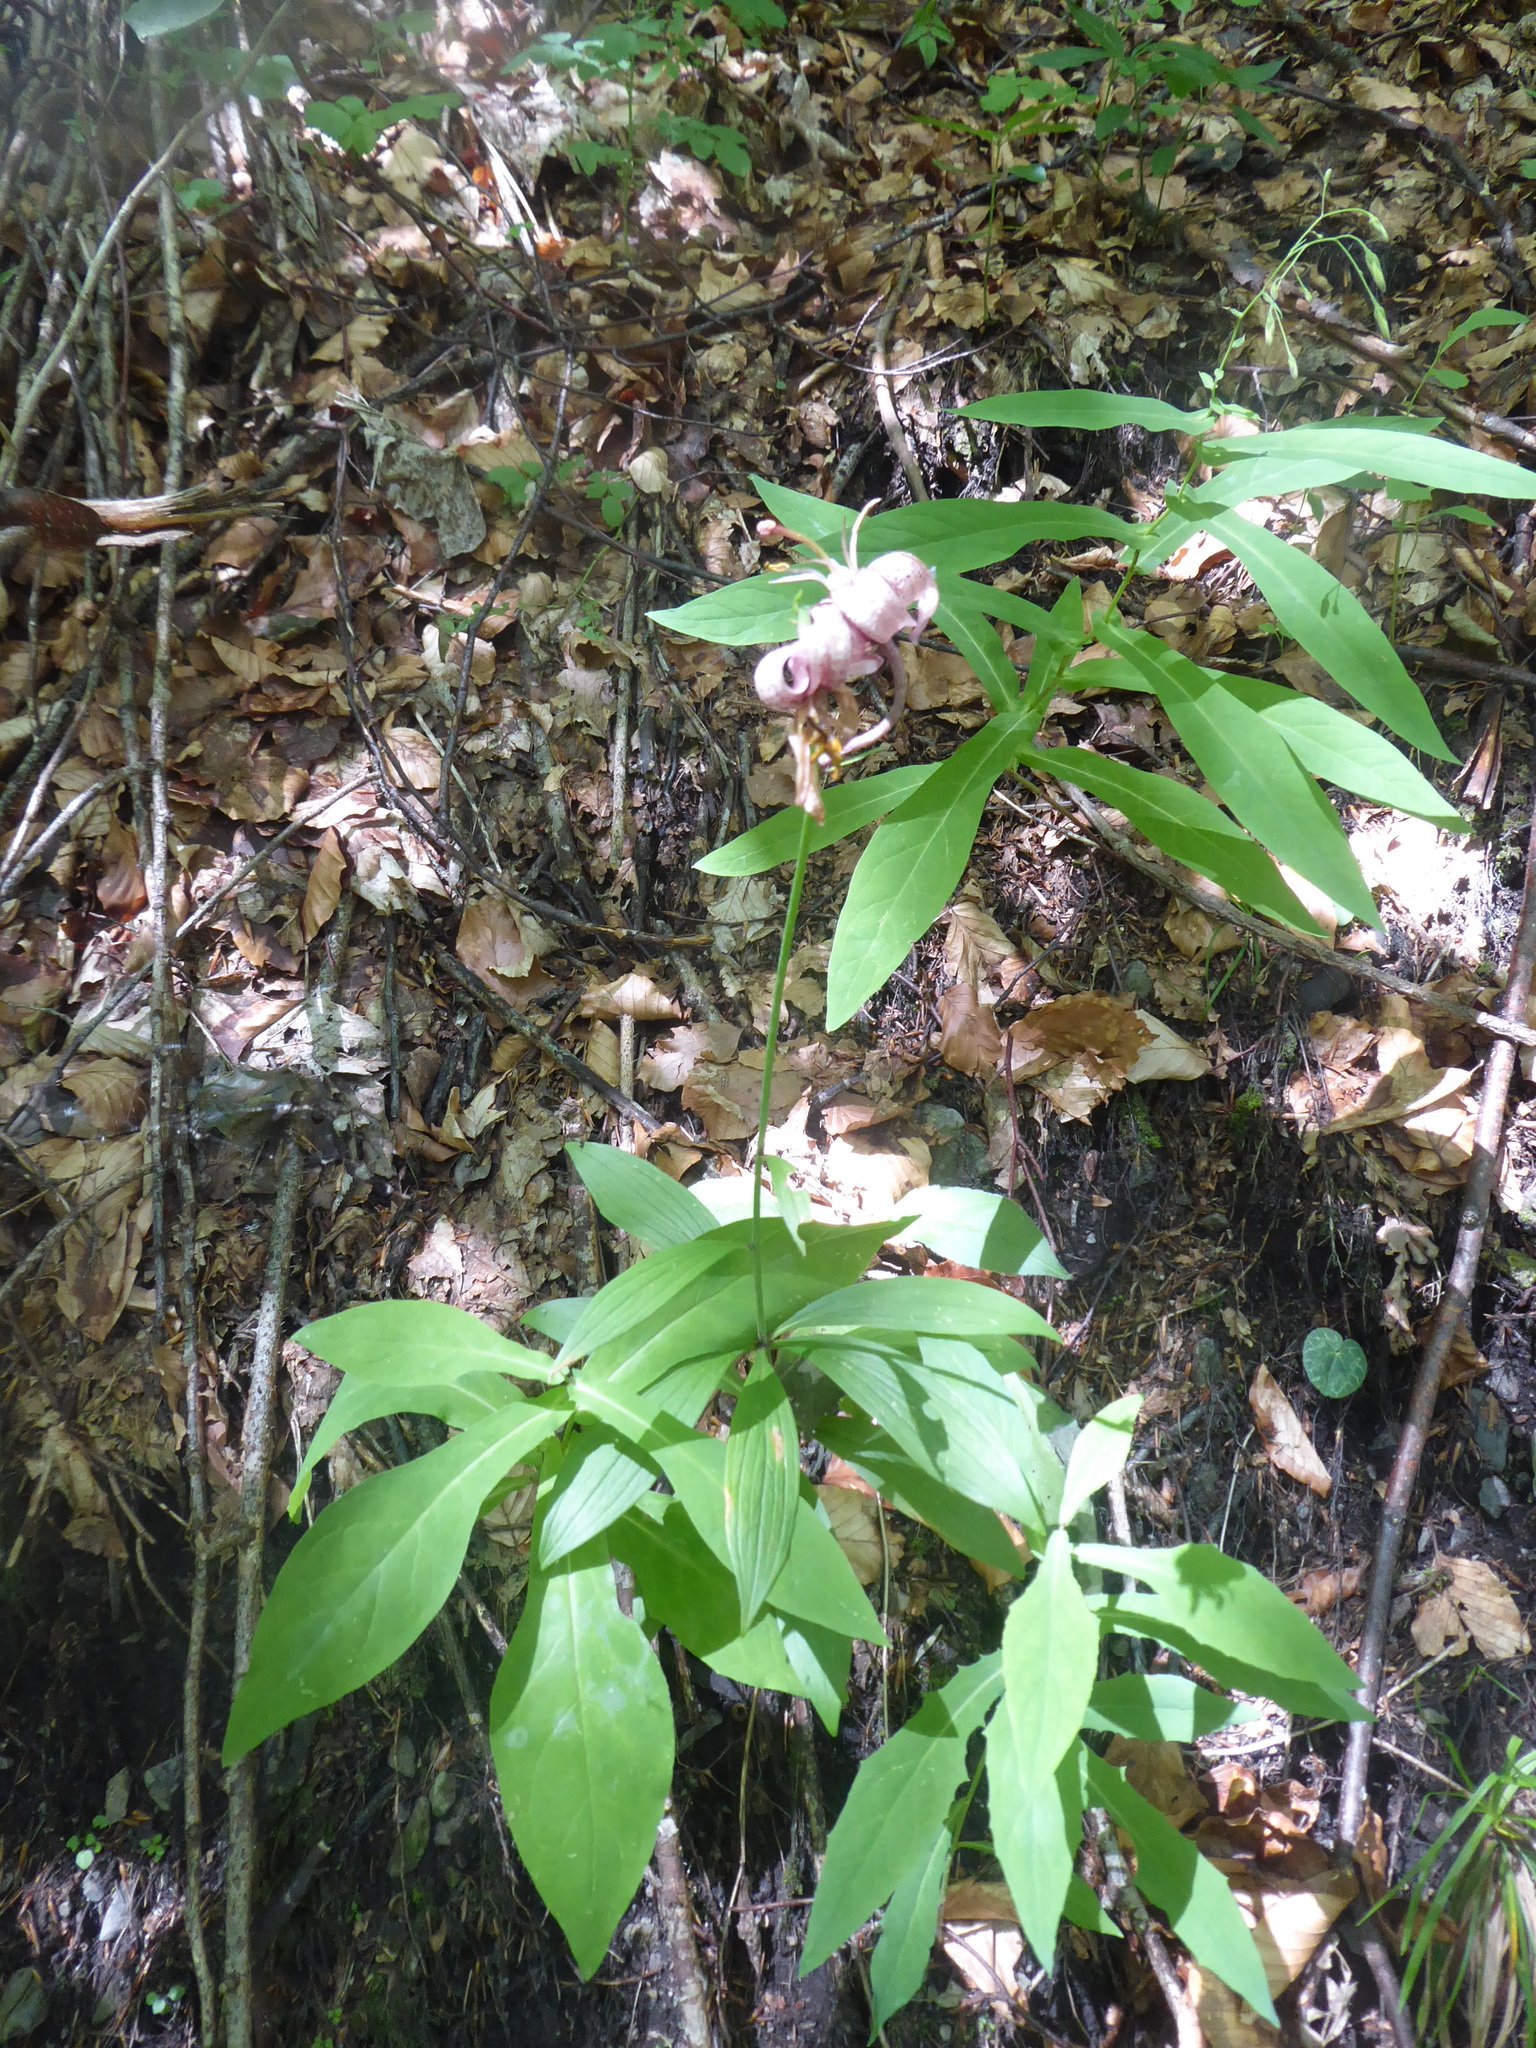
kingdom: Plantae
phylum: Tracheophyta
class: Liliopsida
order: Liliales
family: Liliaceae
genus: Lilium
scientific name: Lilium martagon
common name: Martagon lily
